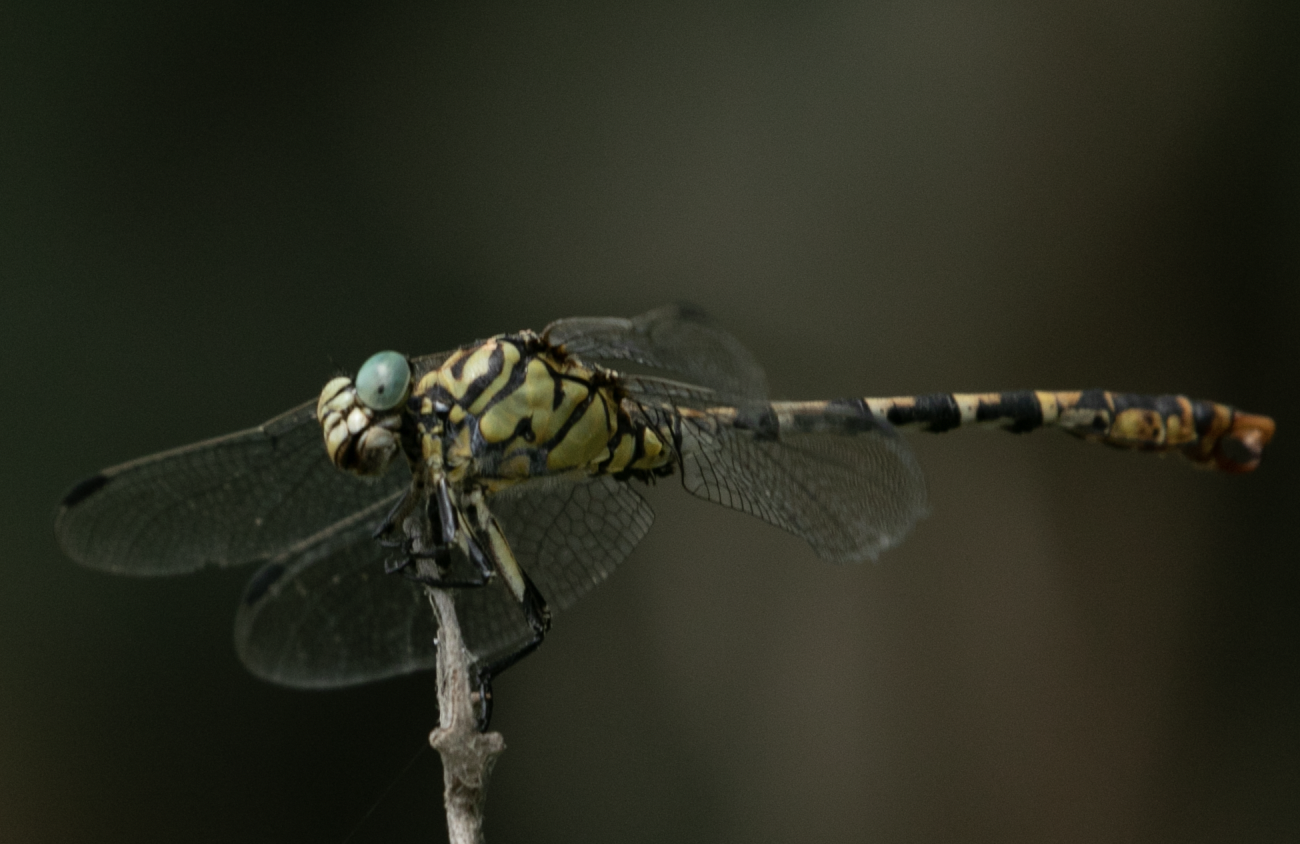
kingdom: Animalia
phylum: Arthropoda
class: Insecta
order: Odonata
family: Gomphidae
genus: Onychogomphus
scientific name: Onychogomphus forcipatus
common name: Small pincertail
